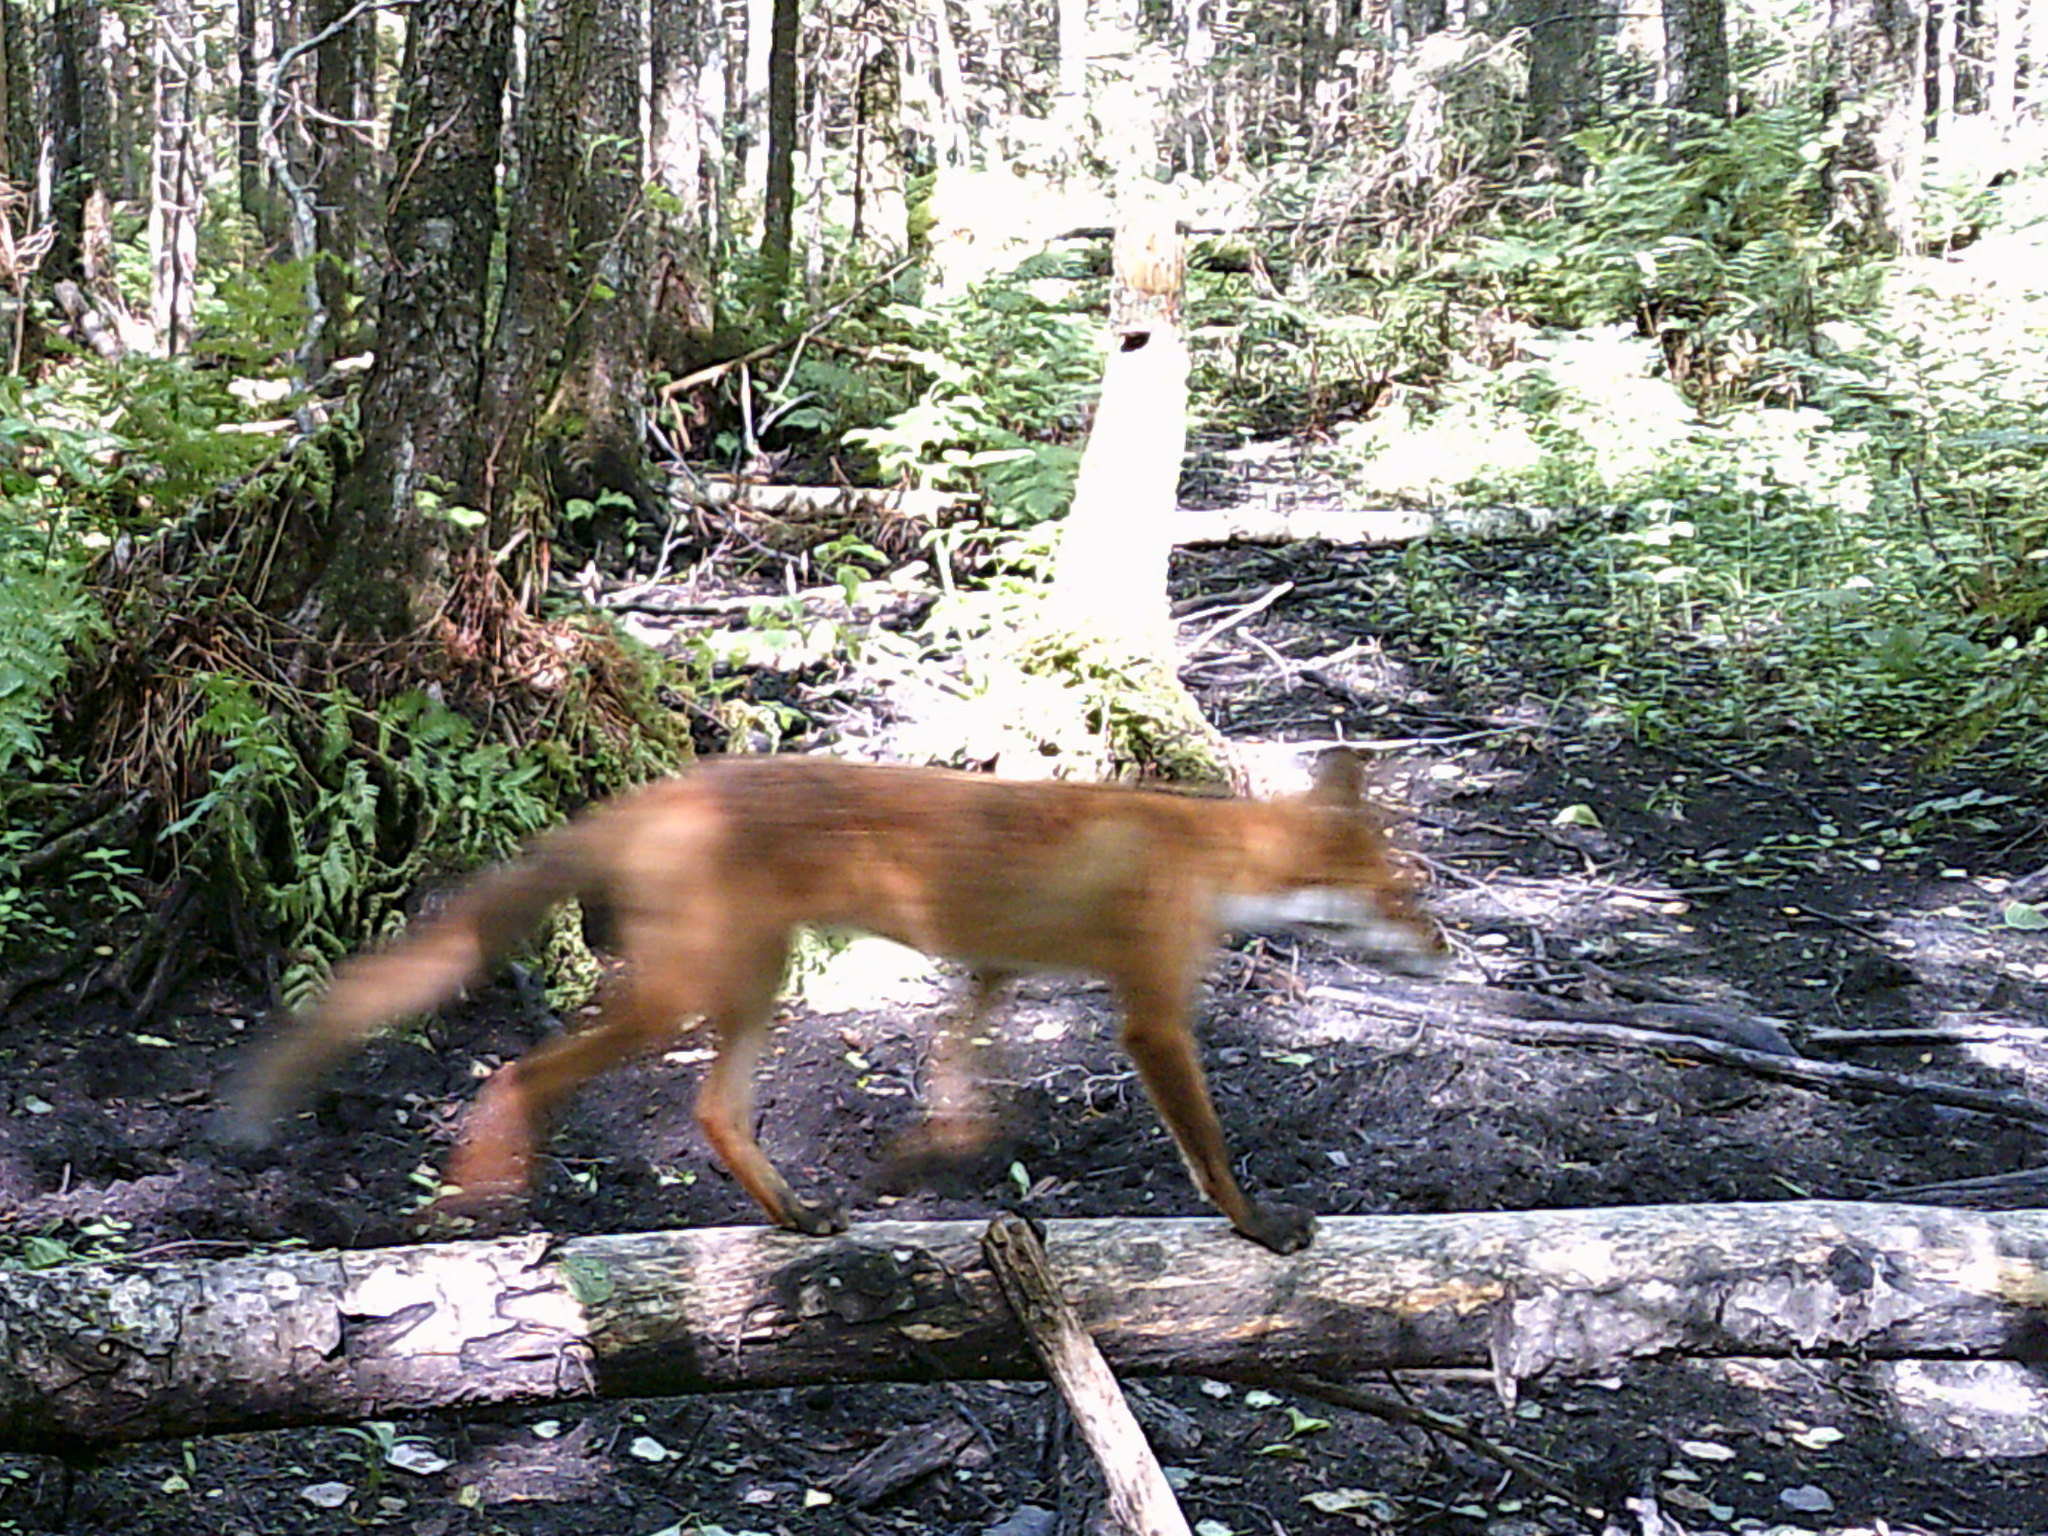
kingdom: Animalia
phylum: Chordata
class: Mammalia
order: Carnivora
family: Canidae
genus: Vulpes
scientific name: Vulpes vulpes
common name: Red fox
